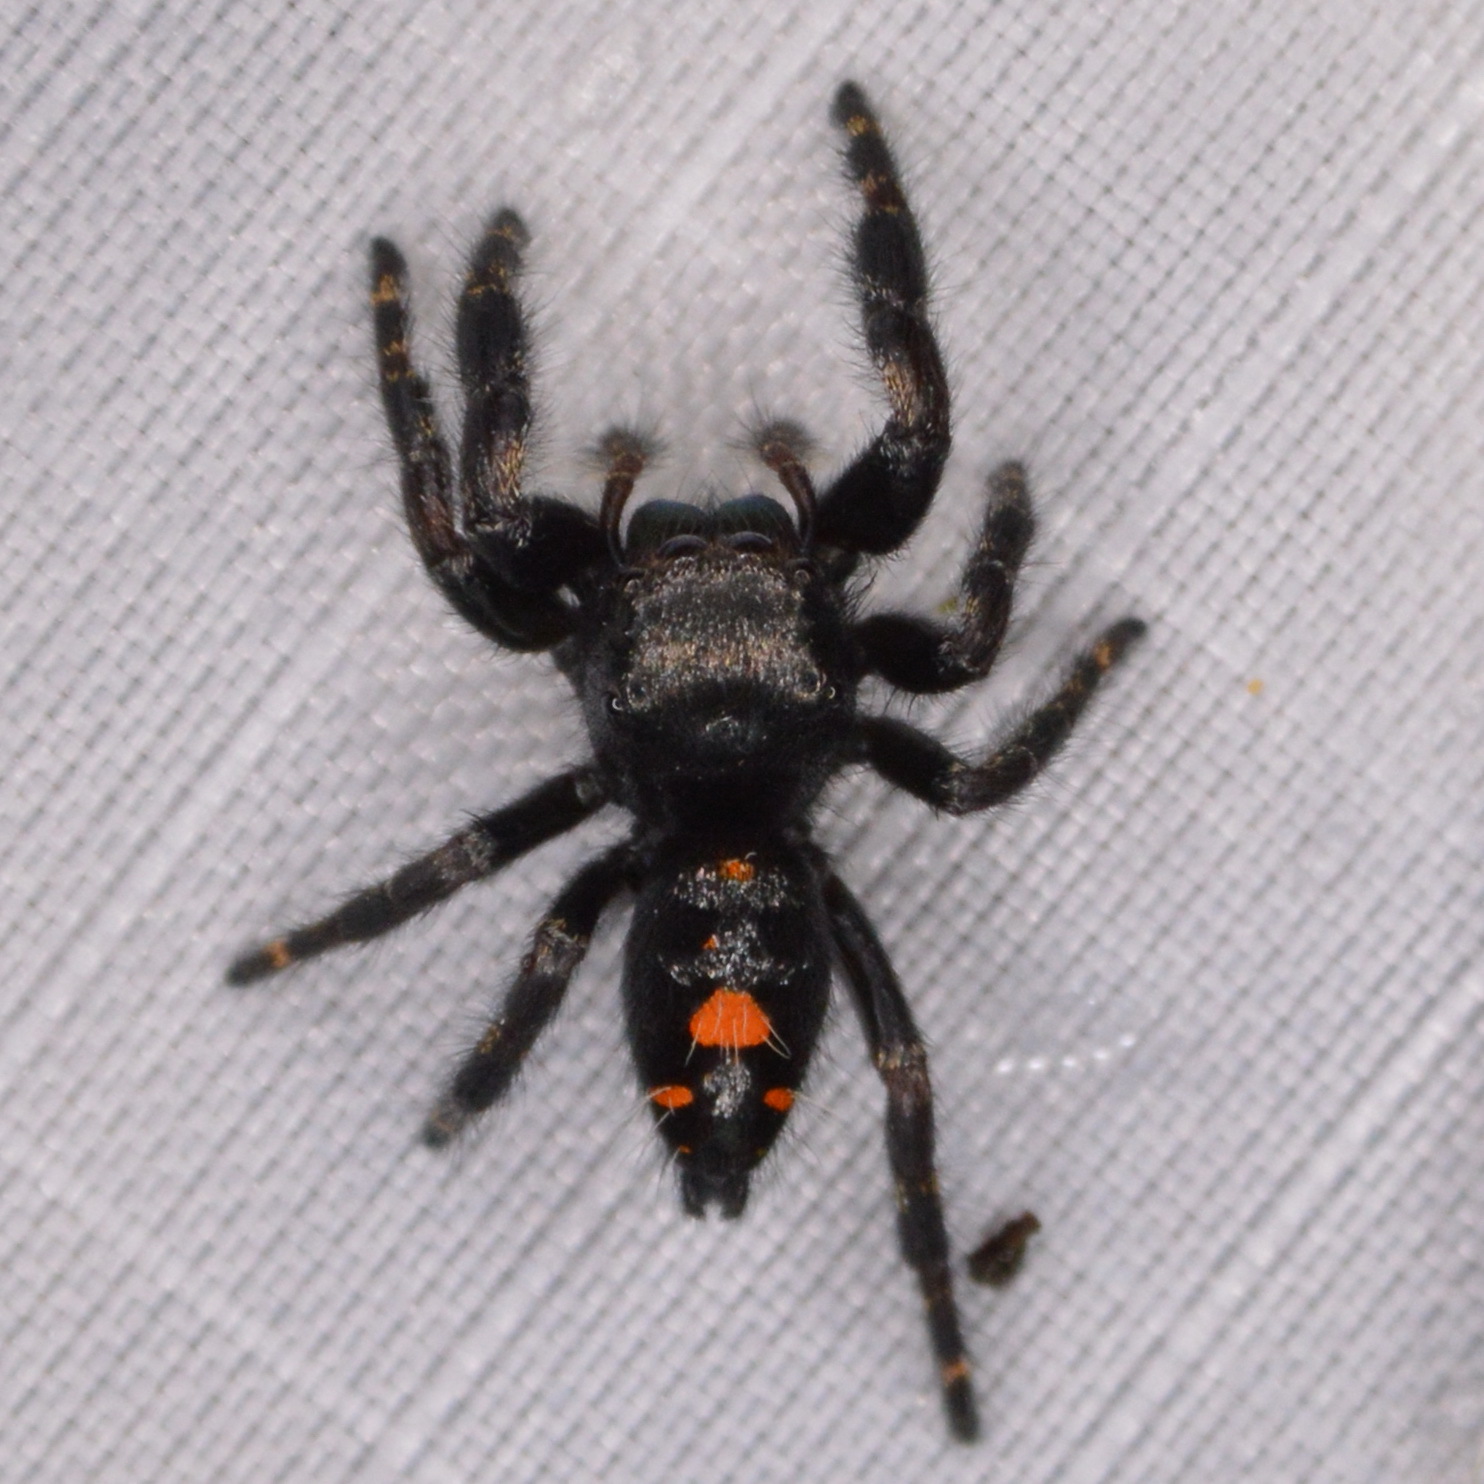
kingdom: Animalia
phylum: Arthropoda
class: Arachnida
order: Araneae
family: Salticidae
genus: Phidippus
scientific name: Phidippus audax
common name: Bold jumper
